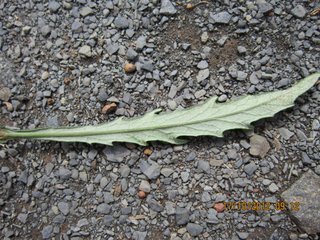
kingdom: Plantae
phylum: Tracheophyta
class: Magnoliopsida
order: Asterales
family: Asteraceae
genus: Senecio
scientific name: Senecio polyanthemoides
